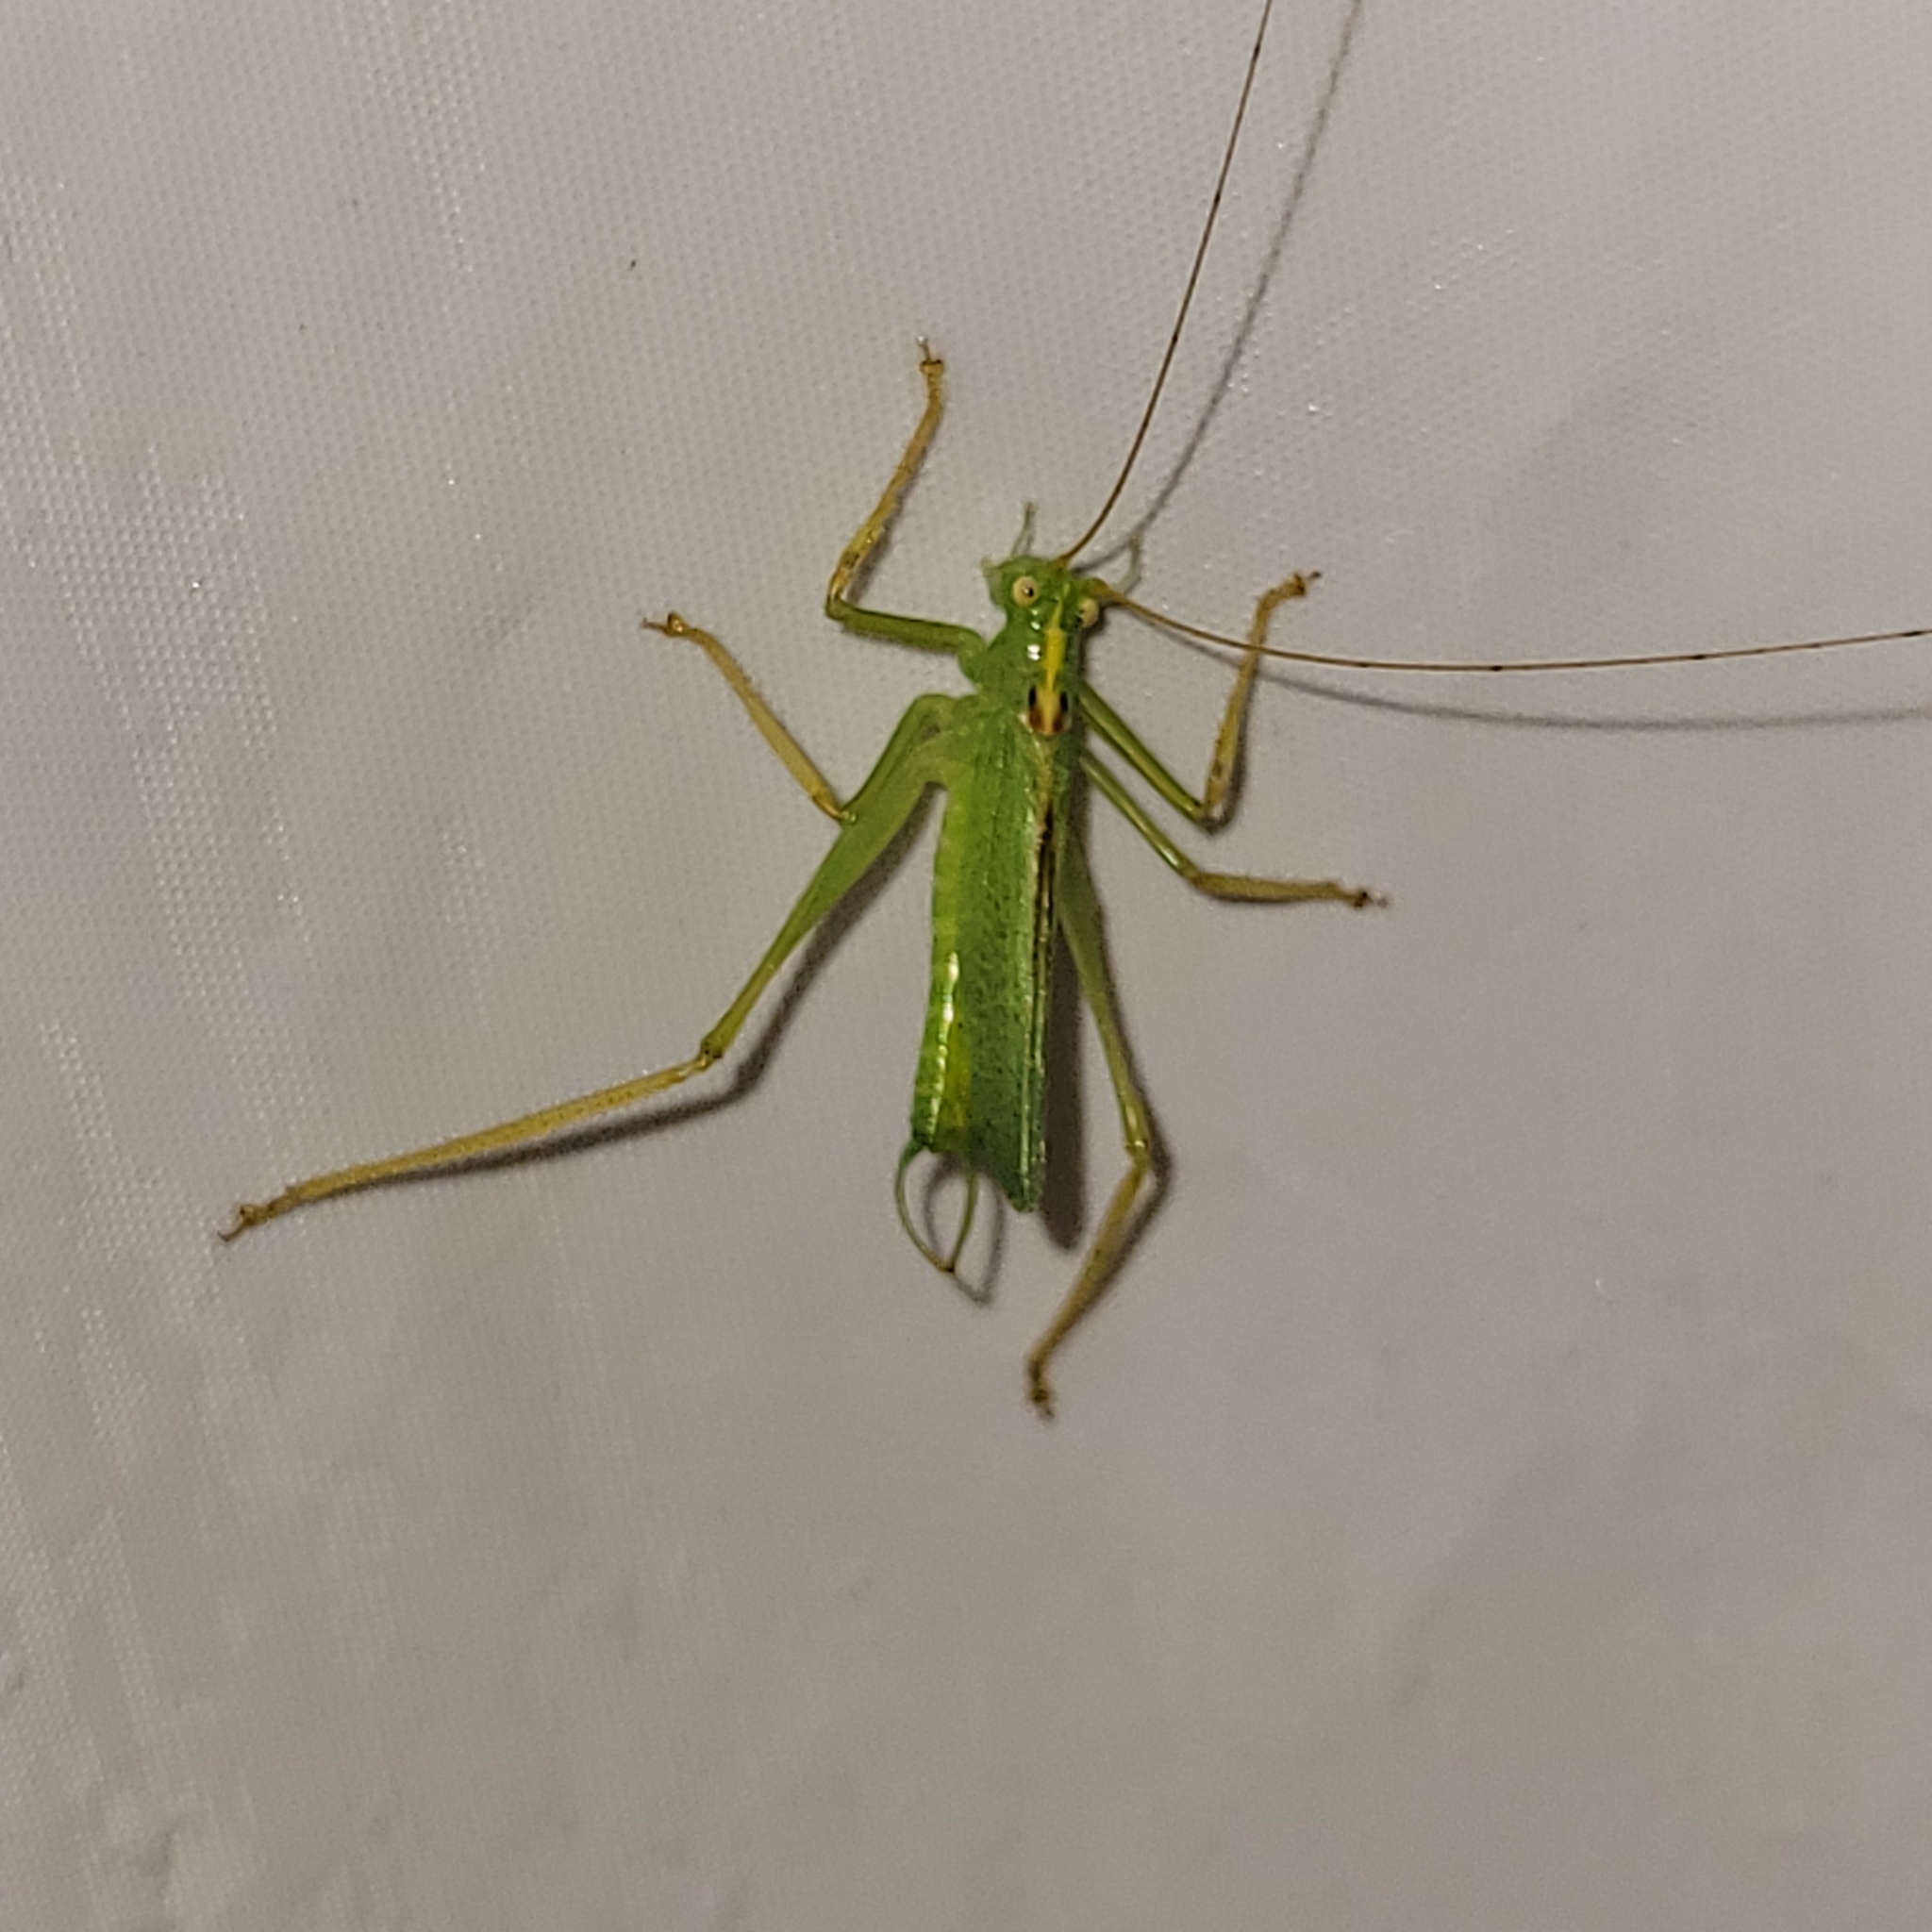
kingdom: Animalia
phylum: Arthropoda
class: Insecta
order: Orthoptera
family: Tettigoniidae
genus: Meconema
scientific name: Meconema thalassinum
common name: Oak bush-cricket
